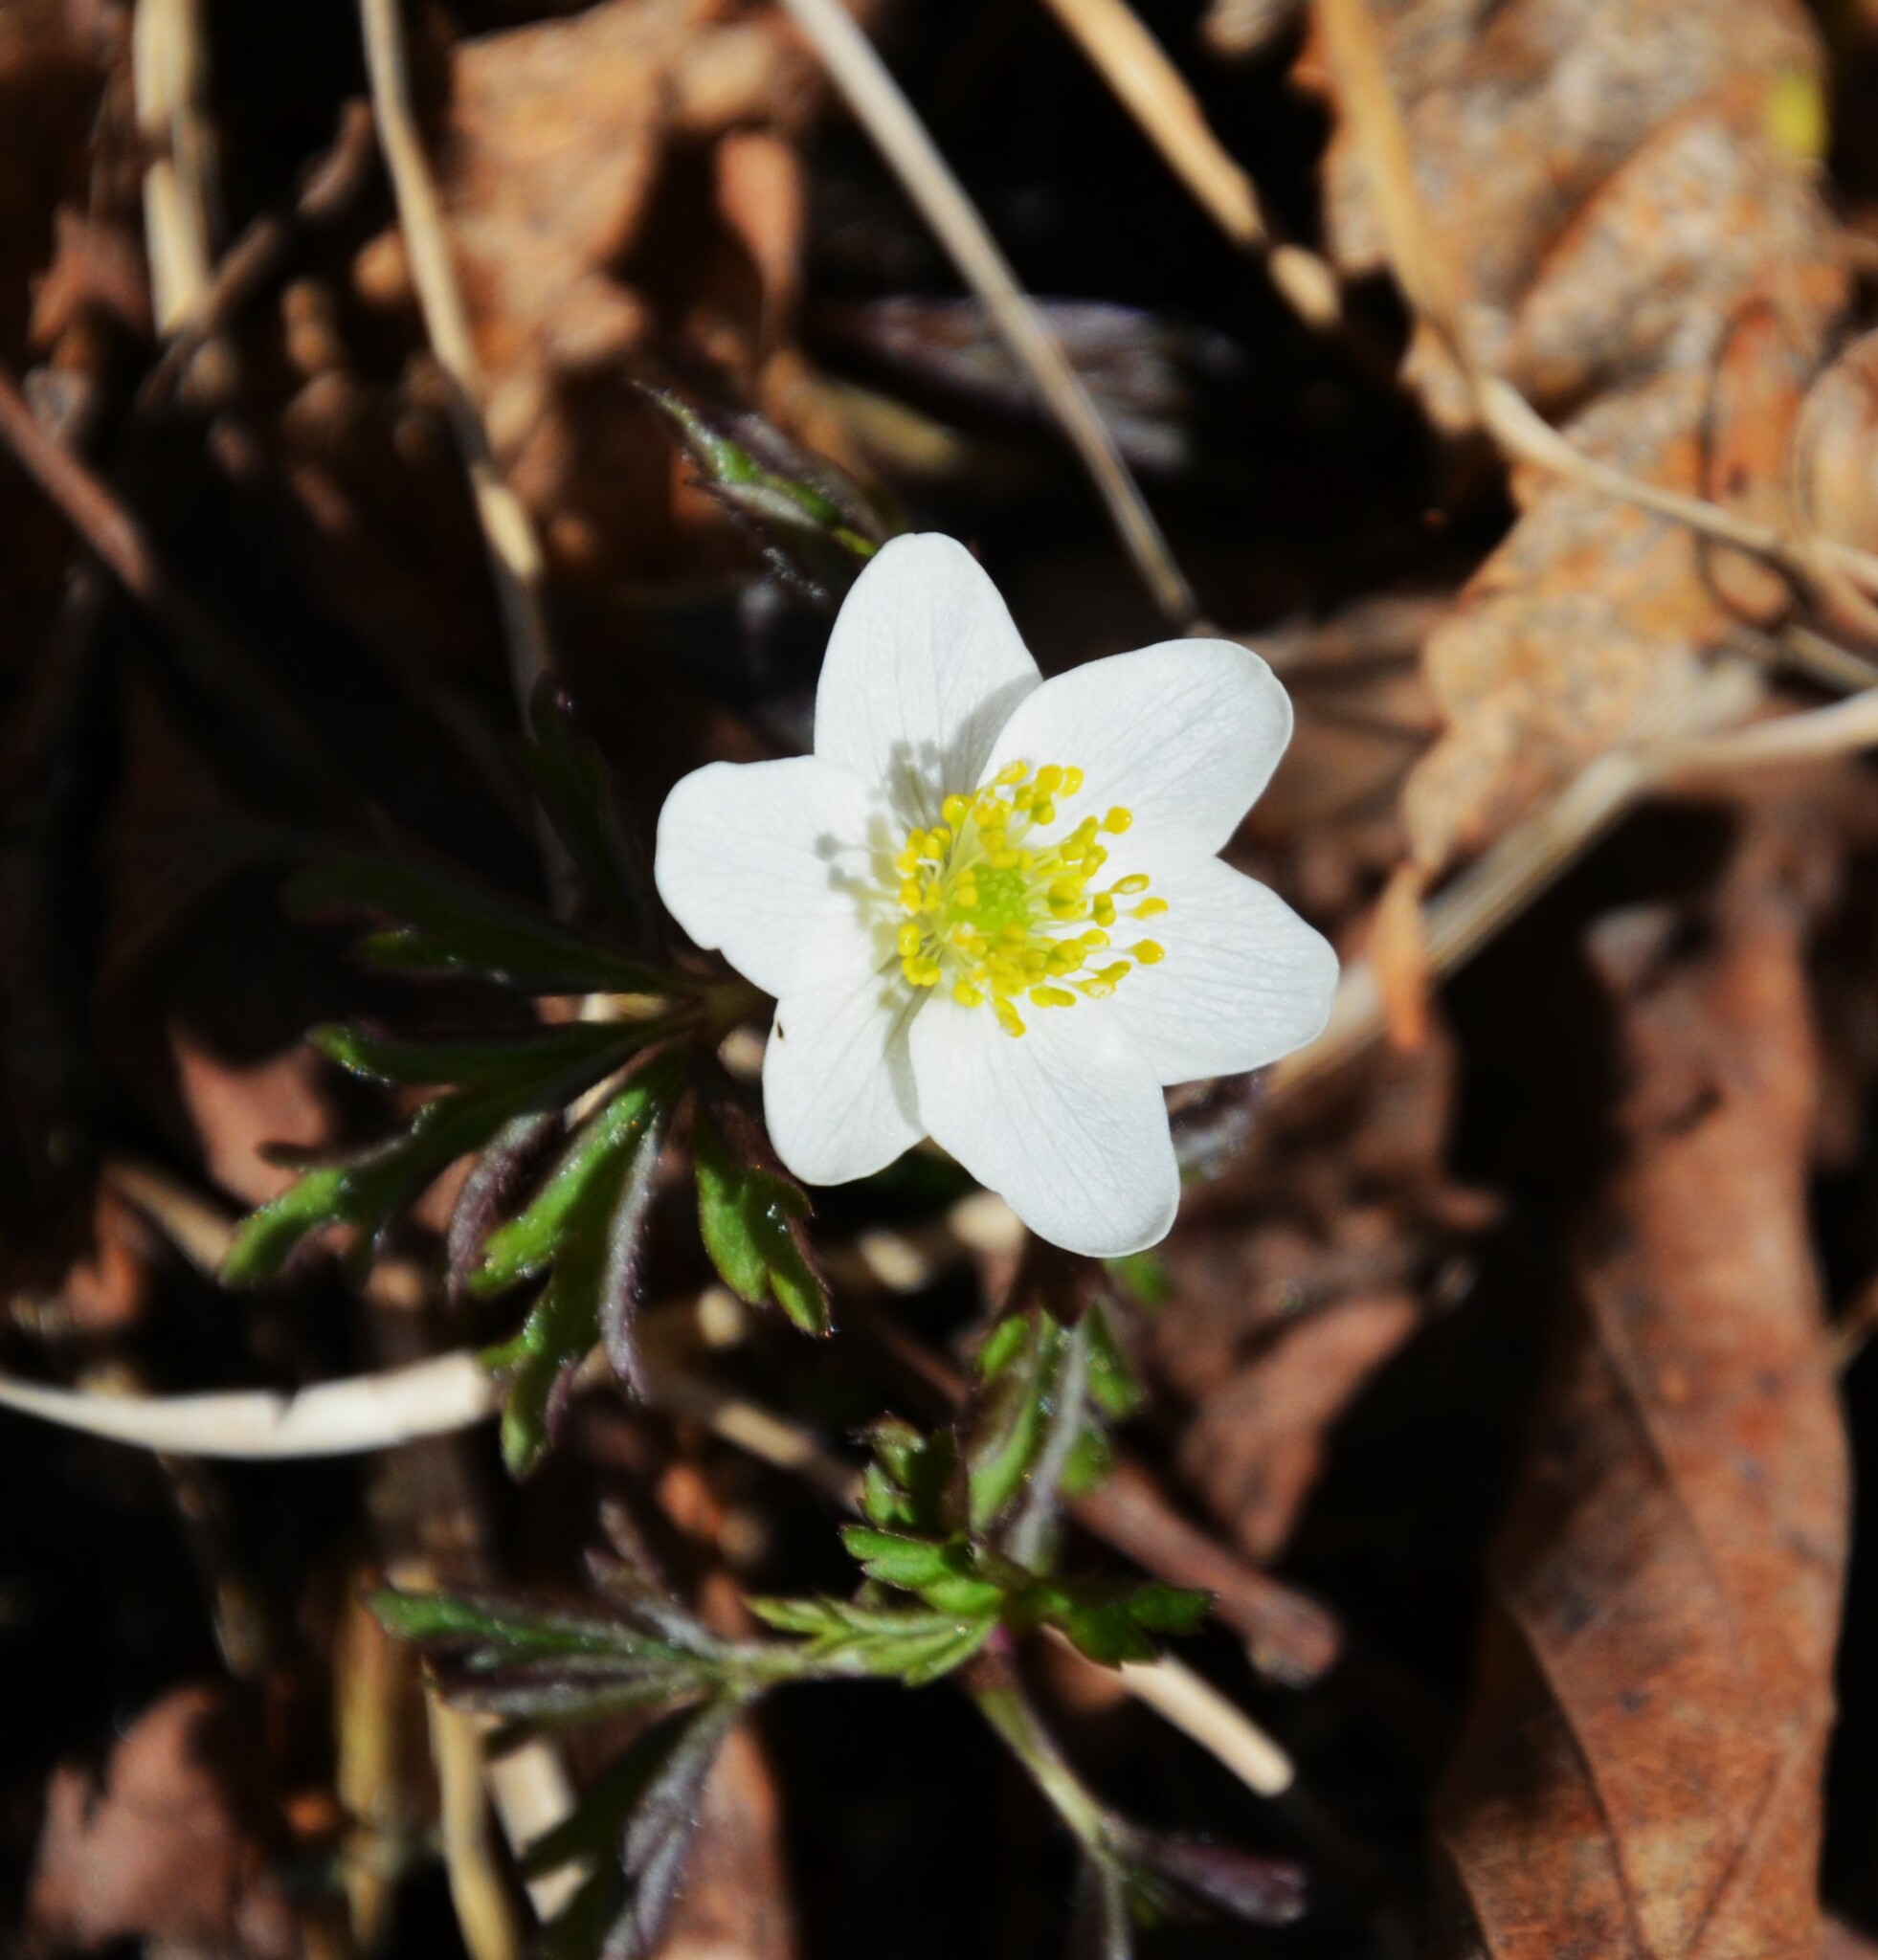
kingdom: Plantae
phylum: Tracheophyta
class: Magnoliopsida
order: Ranunculales
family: Ranunculaceae
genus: Anemone
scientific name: Anemone nemorosa
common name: Wood anemone
